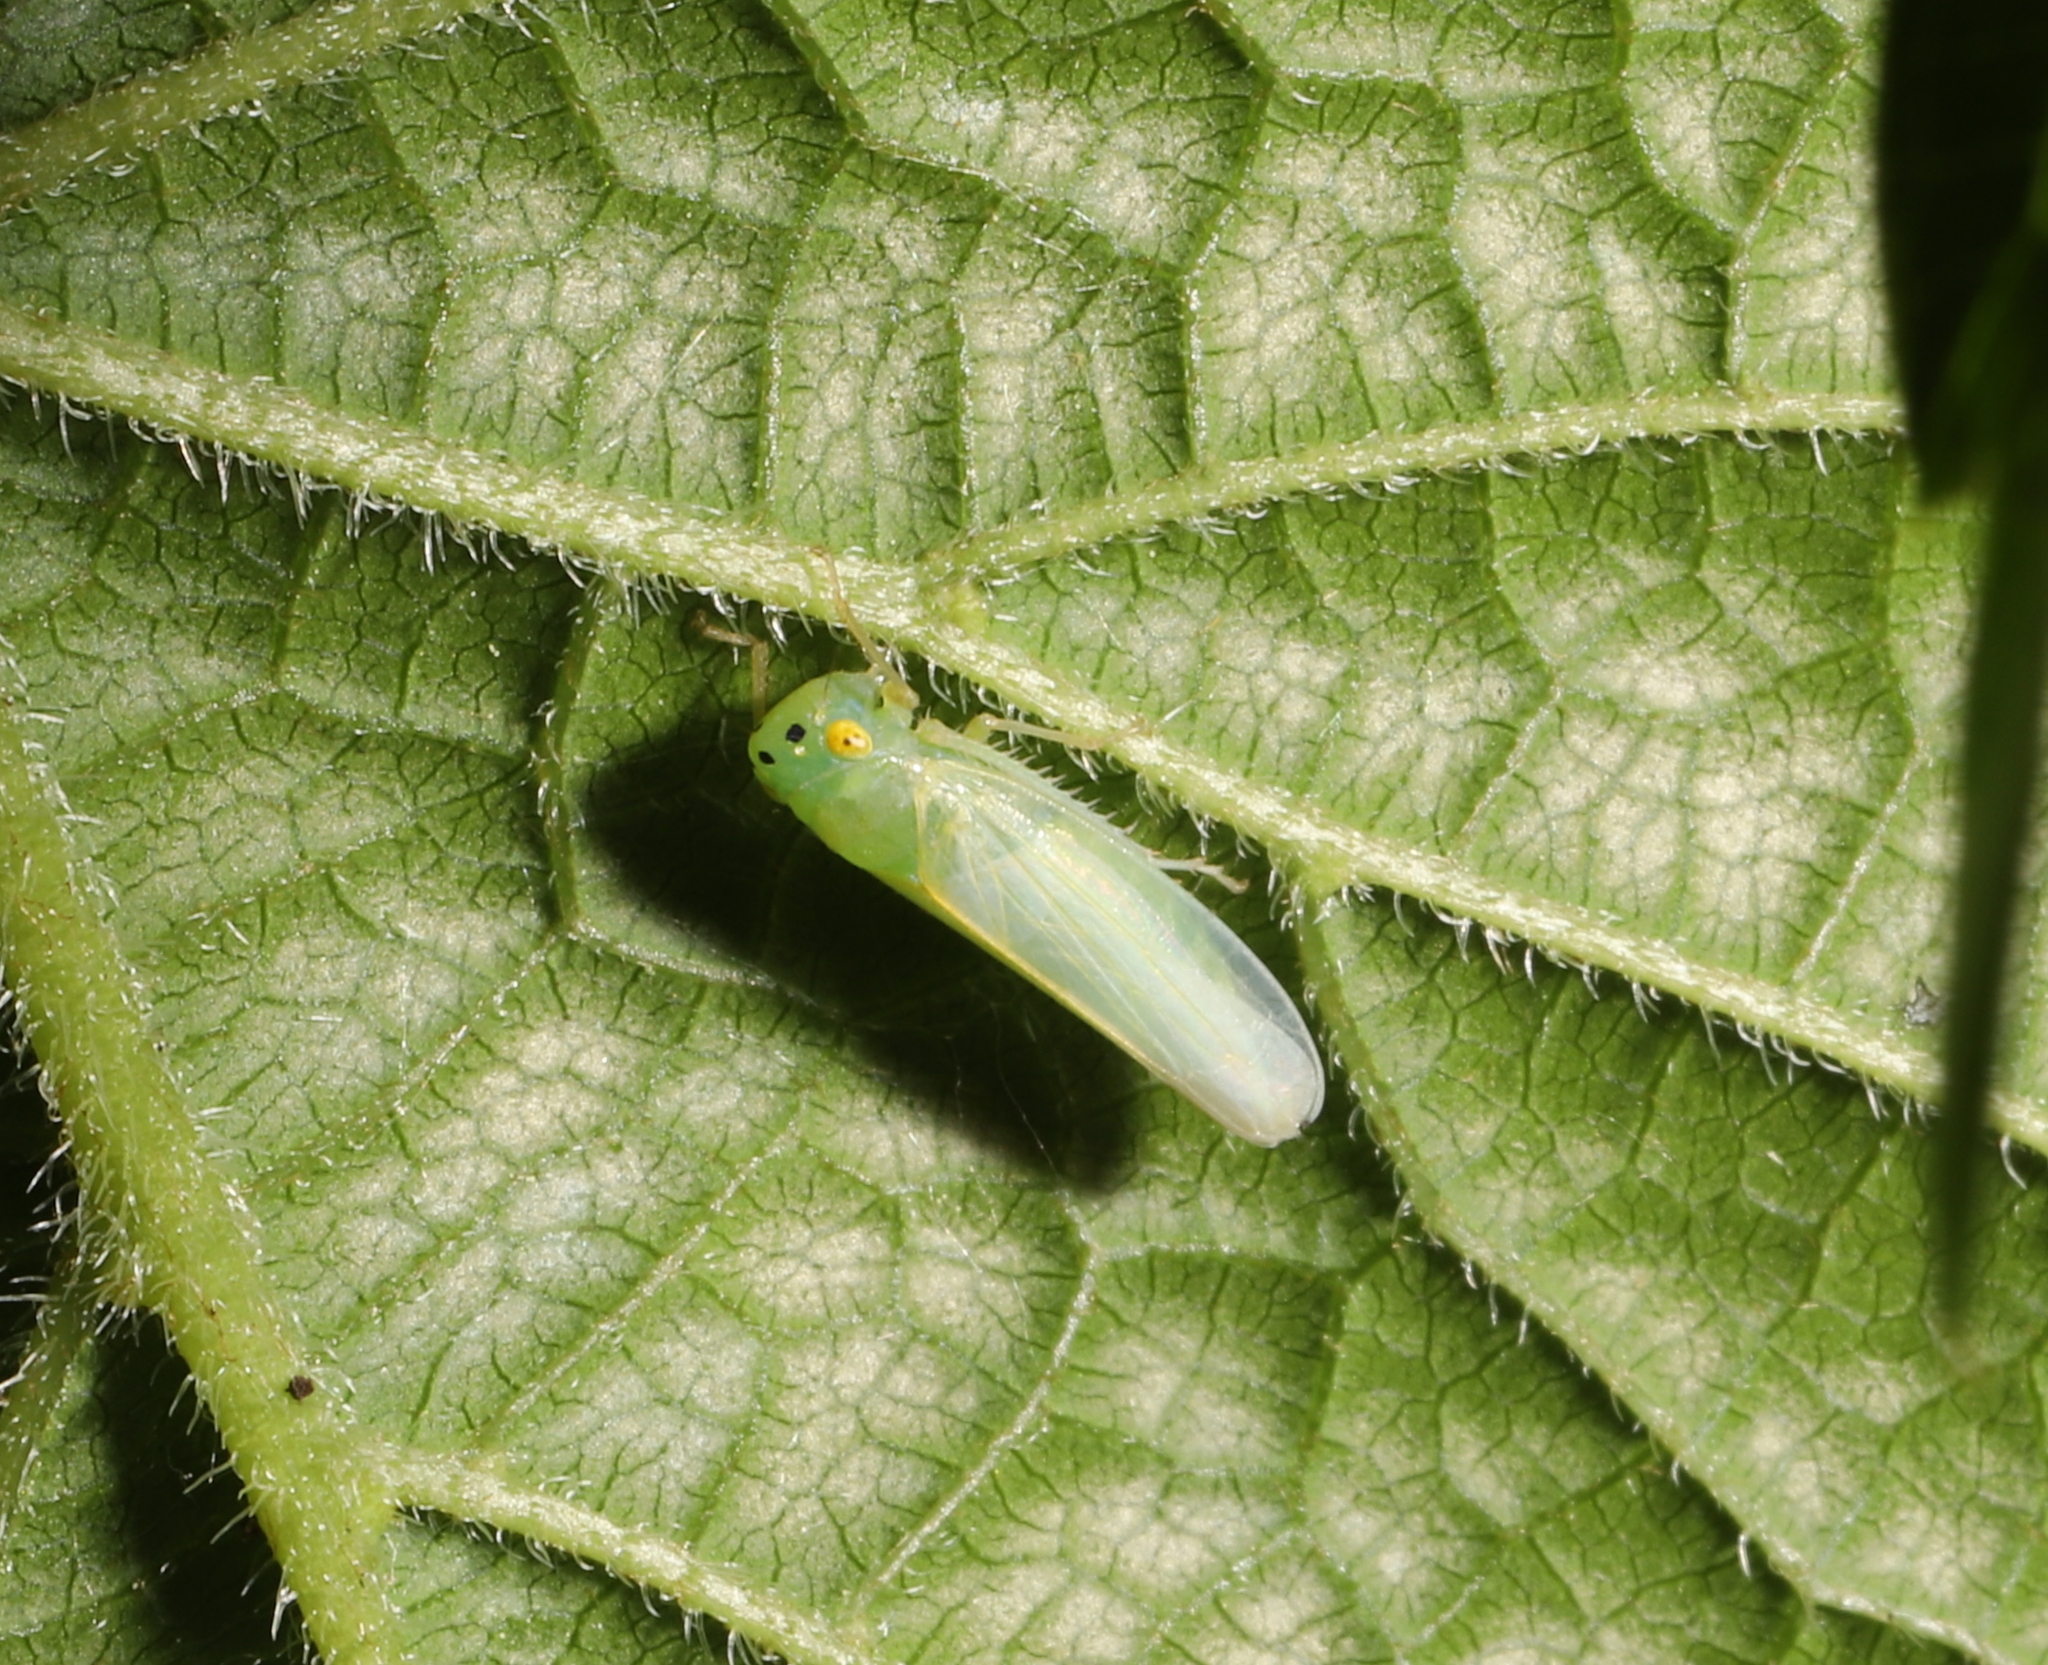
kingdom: Animalia
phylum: Arthropoda
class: Insecta
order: Hemiptera
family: Cicadellidae
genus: Pagaronia
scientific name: Pagaronia minor
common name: Leafhopper
